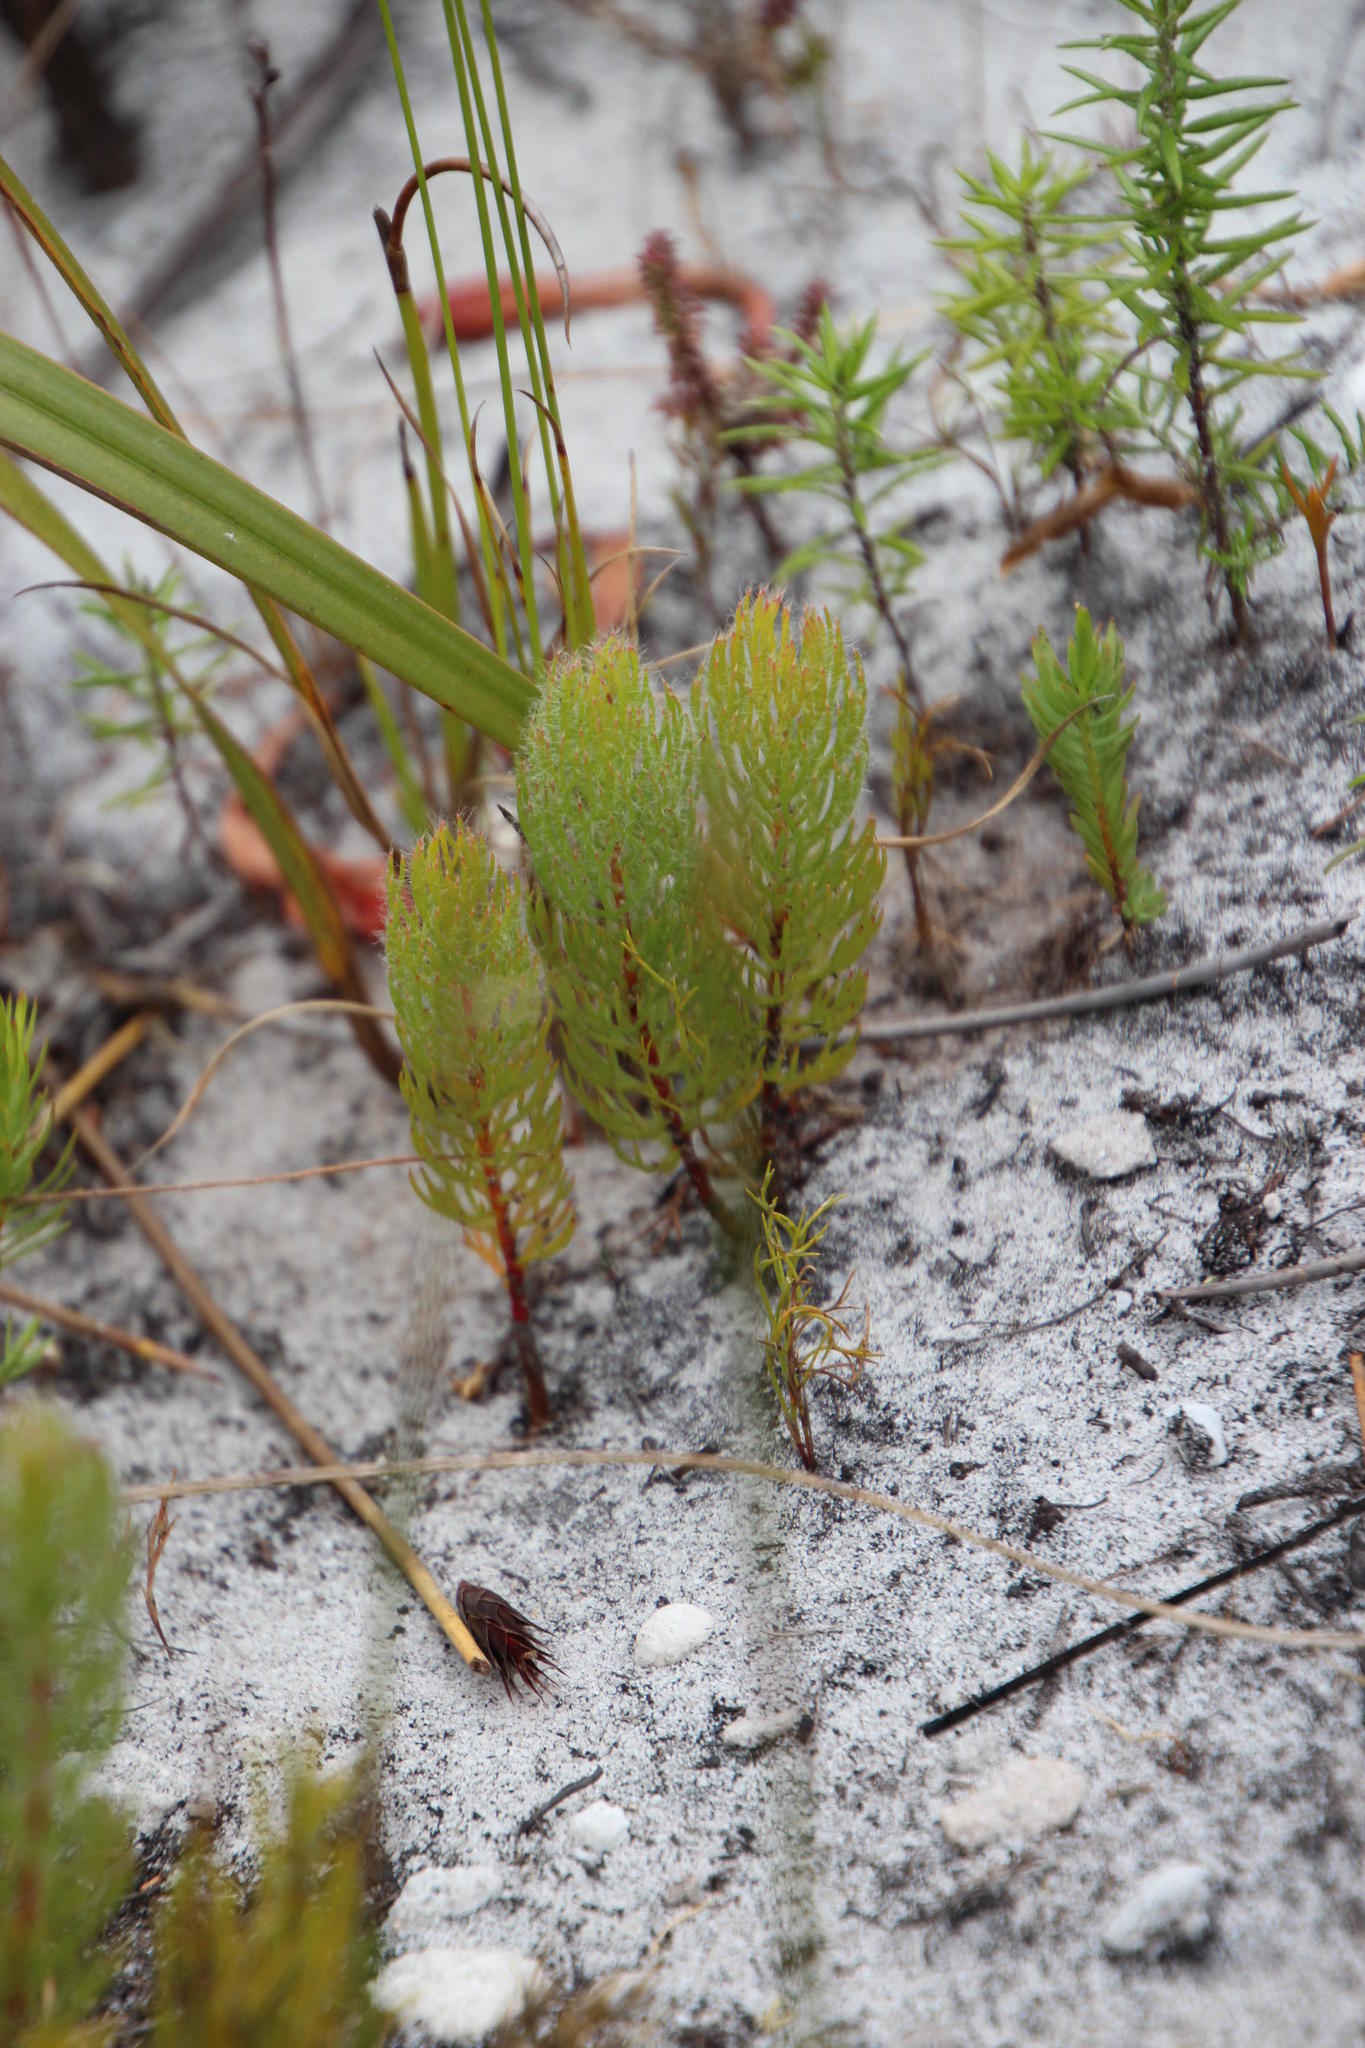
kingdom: Plantae
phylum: Tracheophyta
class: Magnoliopsida
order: Proteales
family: Proteaceae
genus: Serruria
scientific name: Serruria villosa
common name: Golden spiderhead
